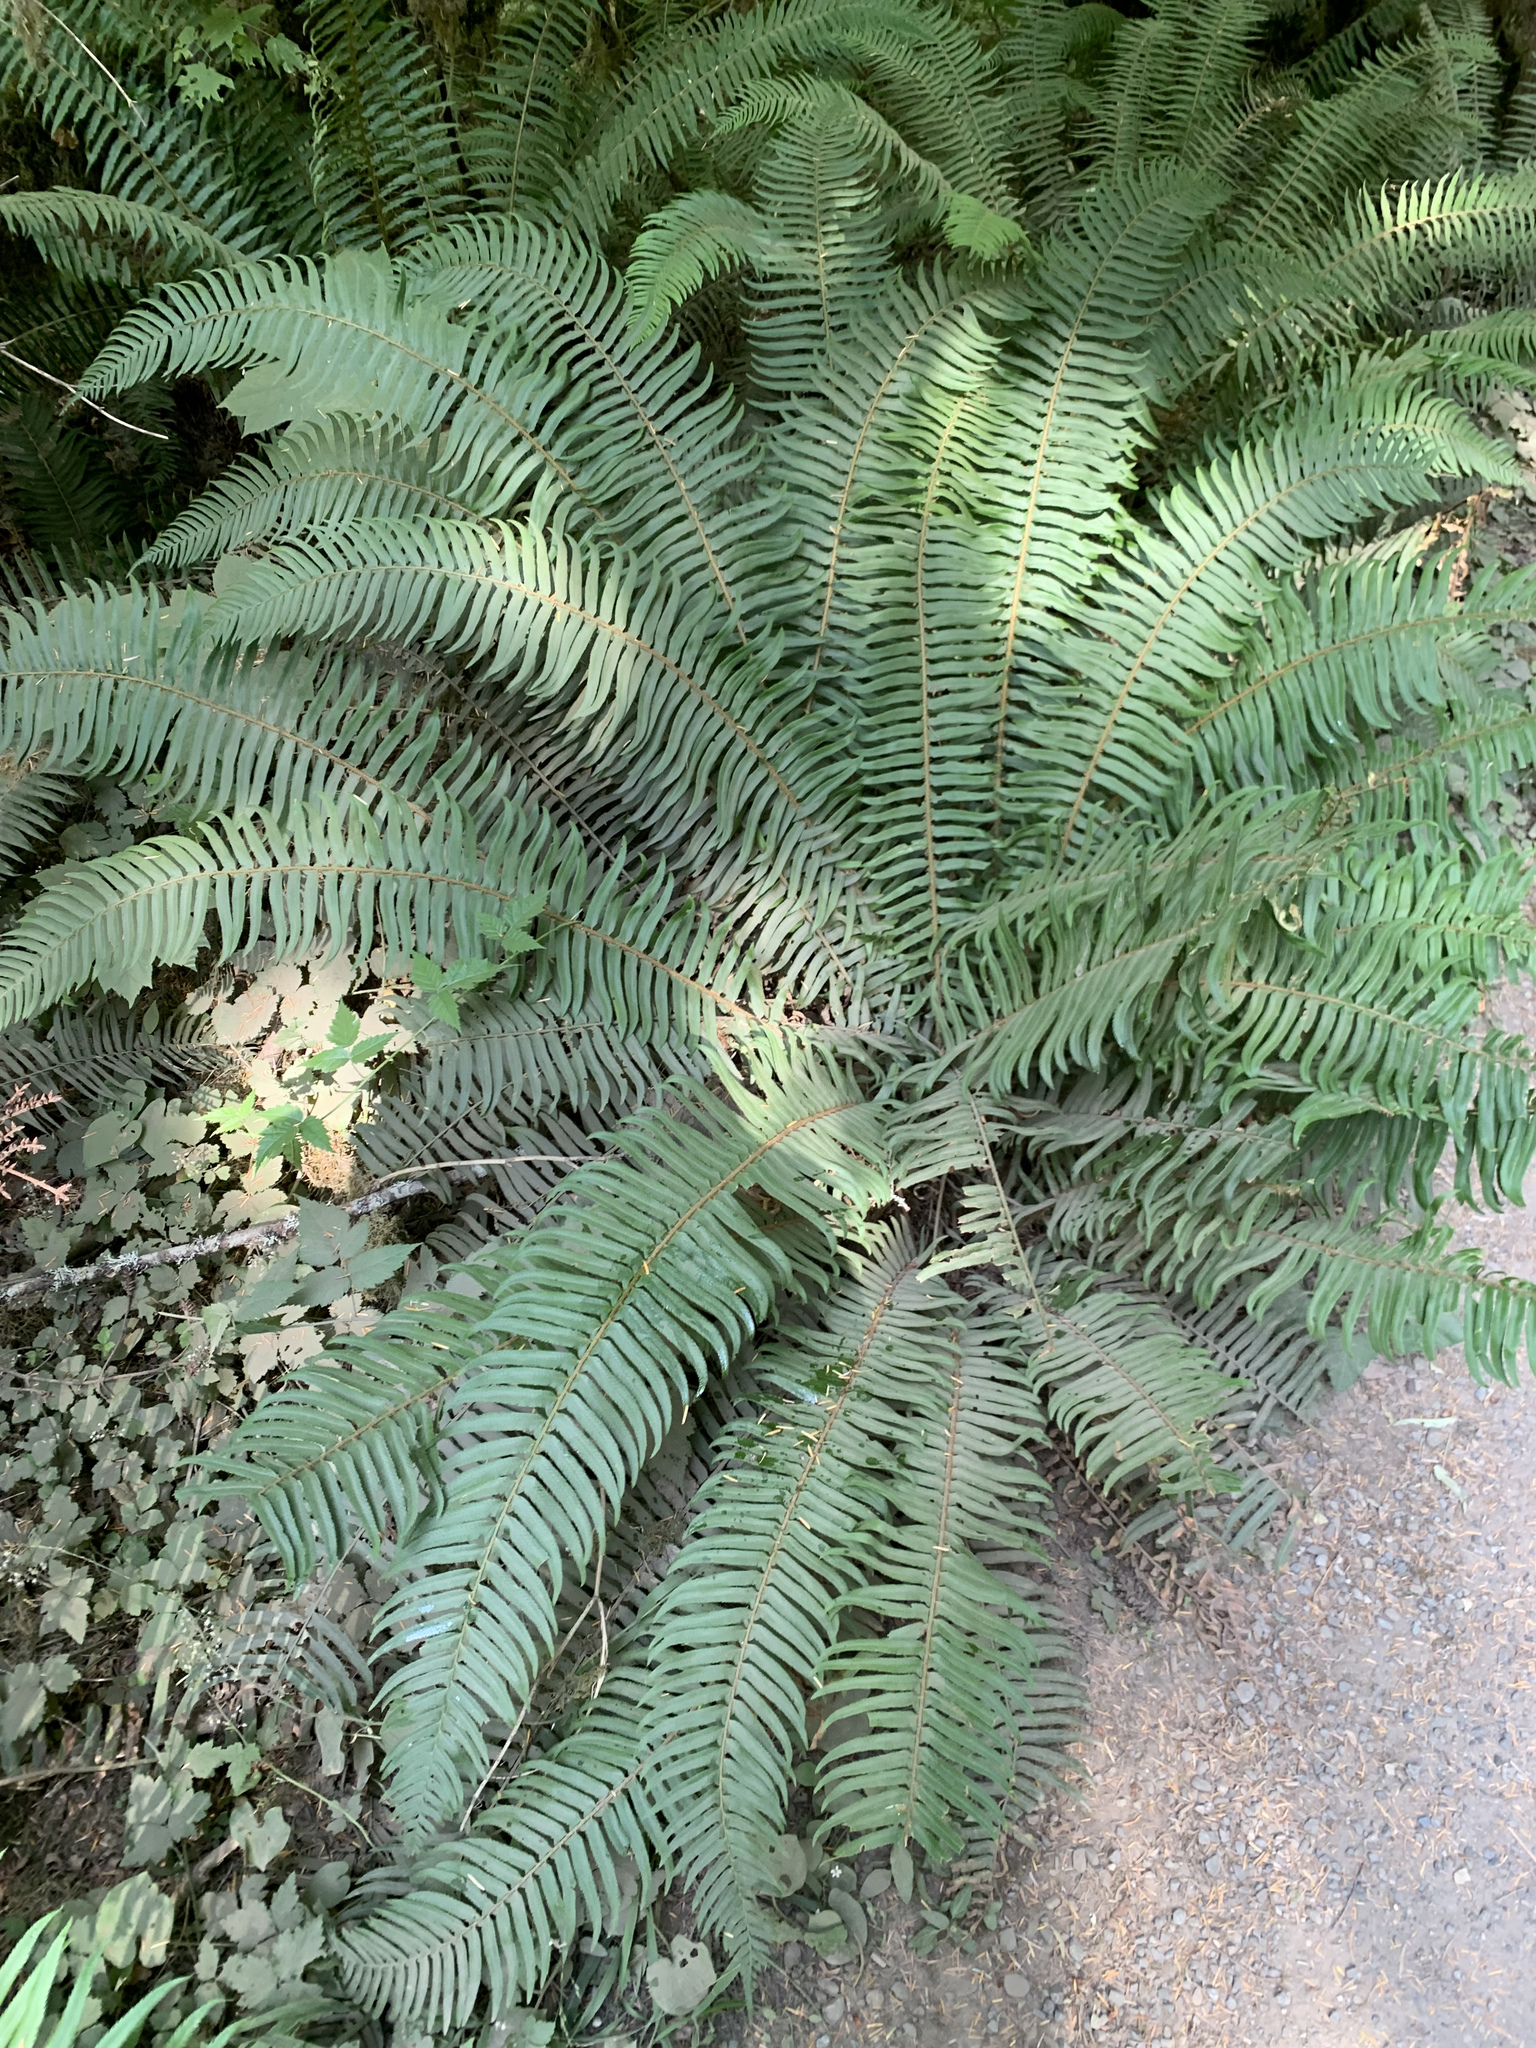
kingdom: Plantae
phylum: Tracheophyta
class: Polypodiopsida
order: Polypodiales
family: Dryopteridaceae
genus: Polystichum
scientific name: Polystichum munitum
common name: Western sword-fern
